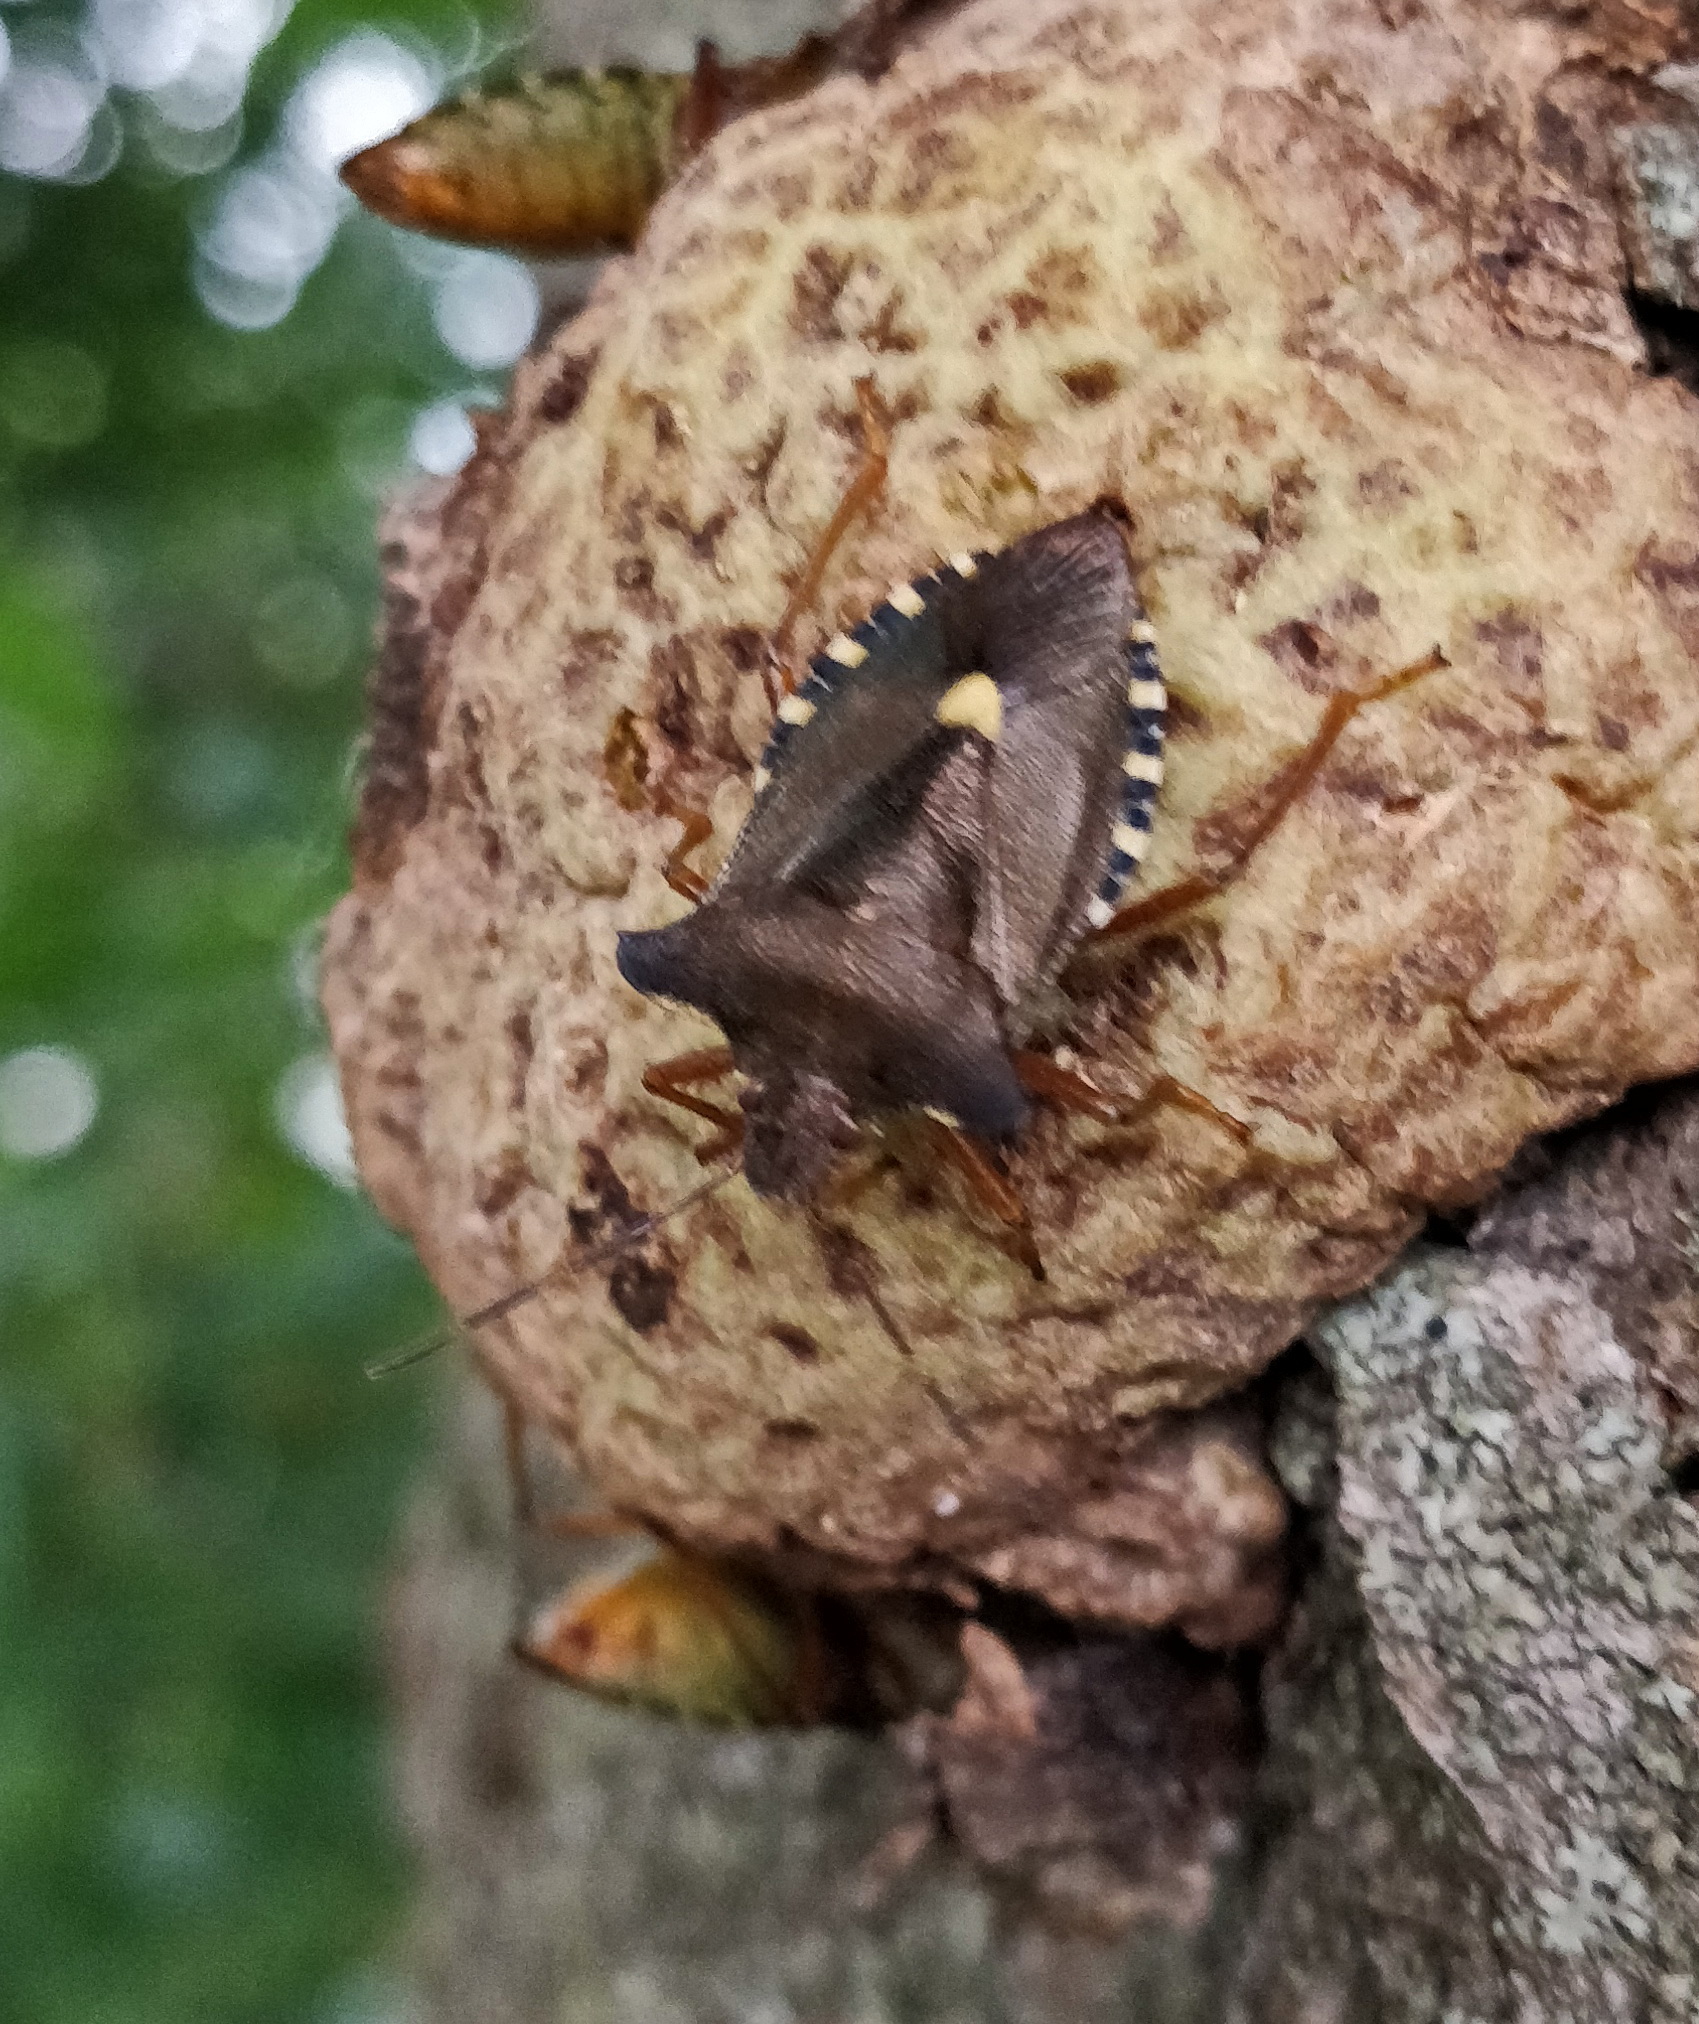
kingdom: Animalia
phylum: Arthropoda
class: Insecta
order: Hemiptera
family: Pentatomidae
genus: Pentatoma
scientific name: Pentatoma rufipes
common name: Forest bug
